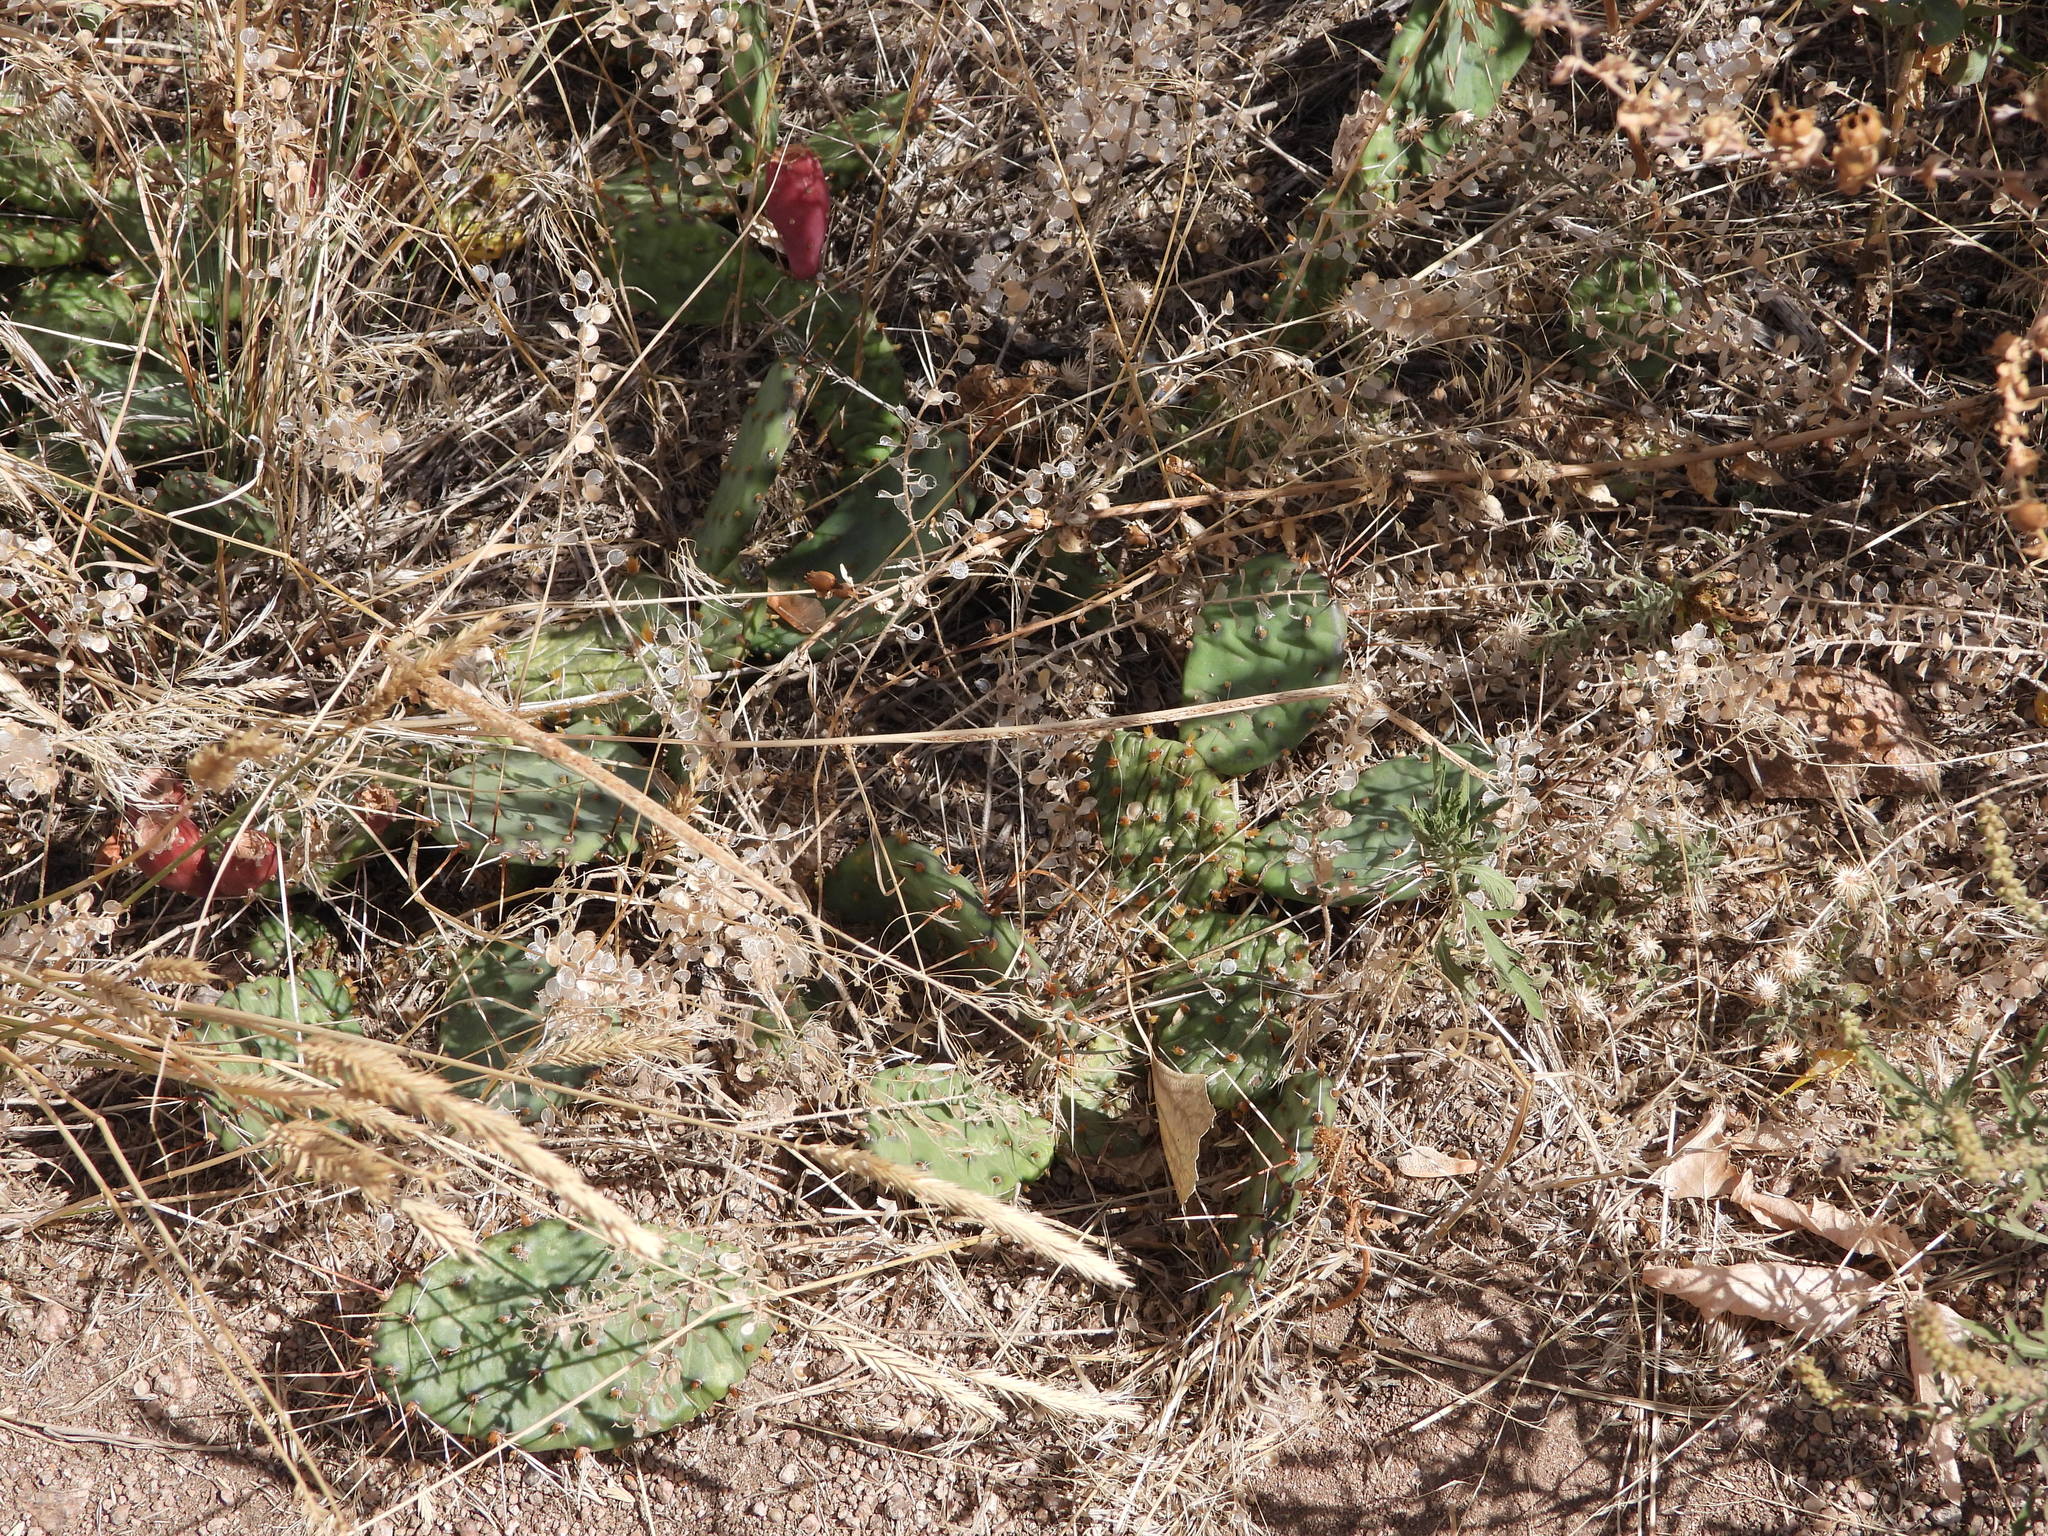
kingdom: Plantae
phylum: Tracheophyta
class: Magnoliopsida
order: Caryophyllales
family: Cactaceae
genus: Opuntia
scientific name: Opuntia macrorhiza
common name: Grassland pricklypear
